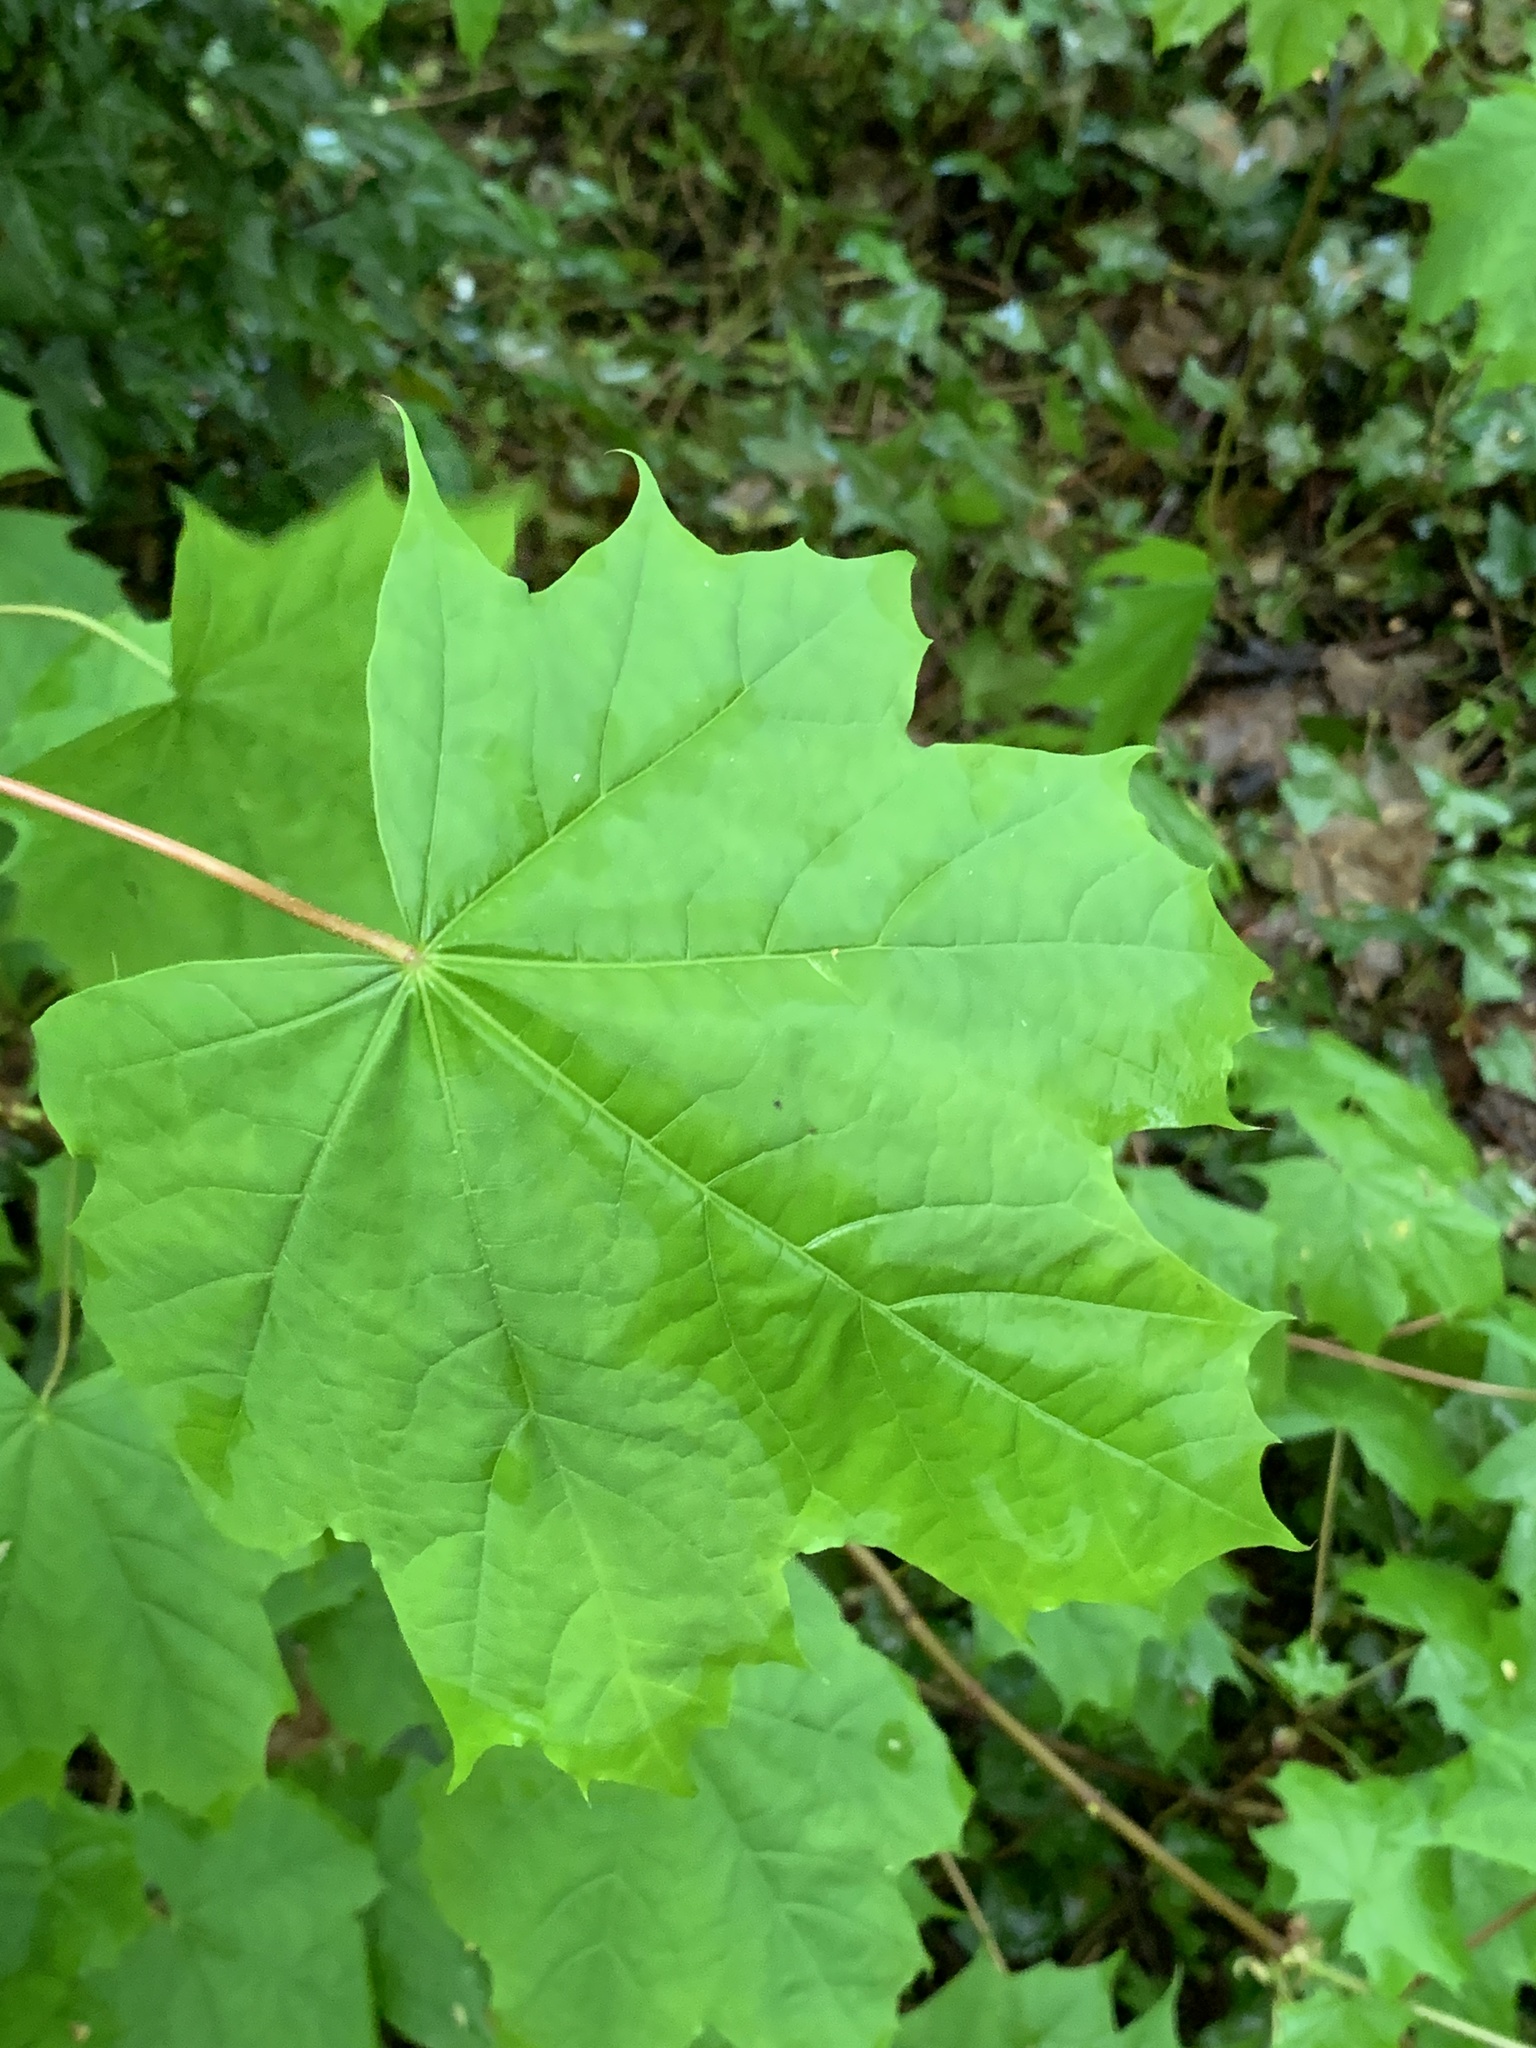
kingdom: Plantae
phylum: Tracheophyta
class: Magnoliopsida
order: Sapindales
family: Sapindaceae
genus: Acer
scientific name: Acer platanoides
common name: Norway maple
